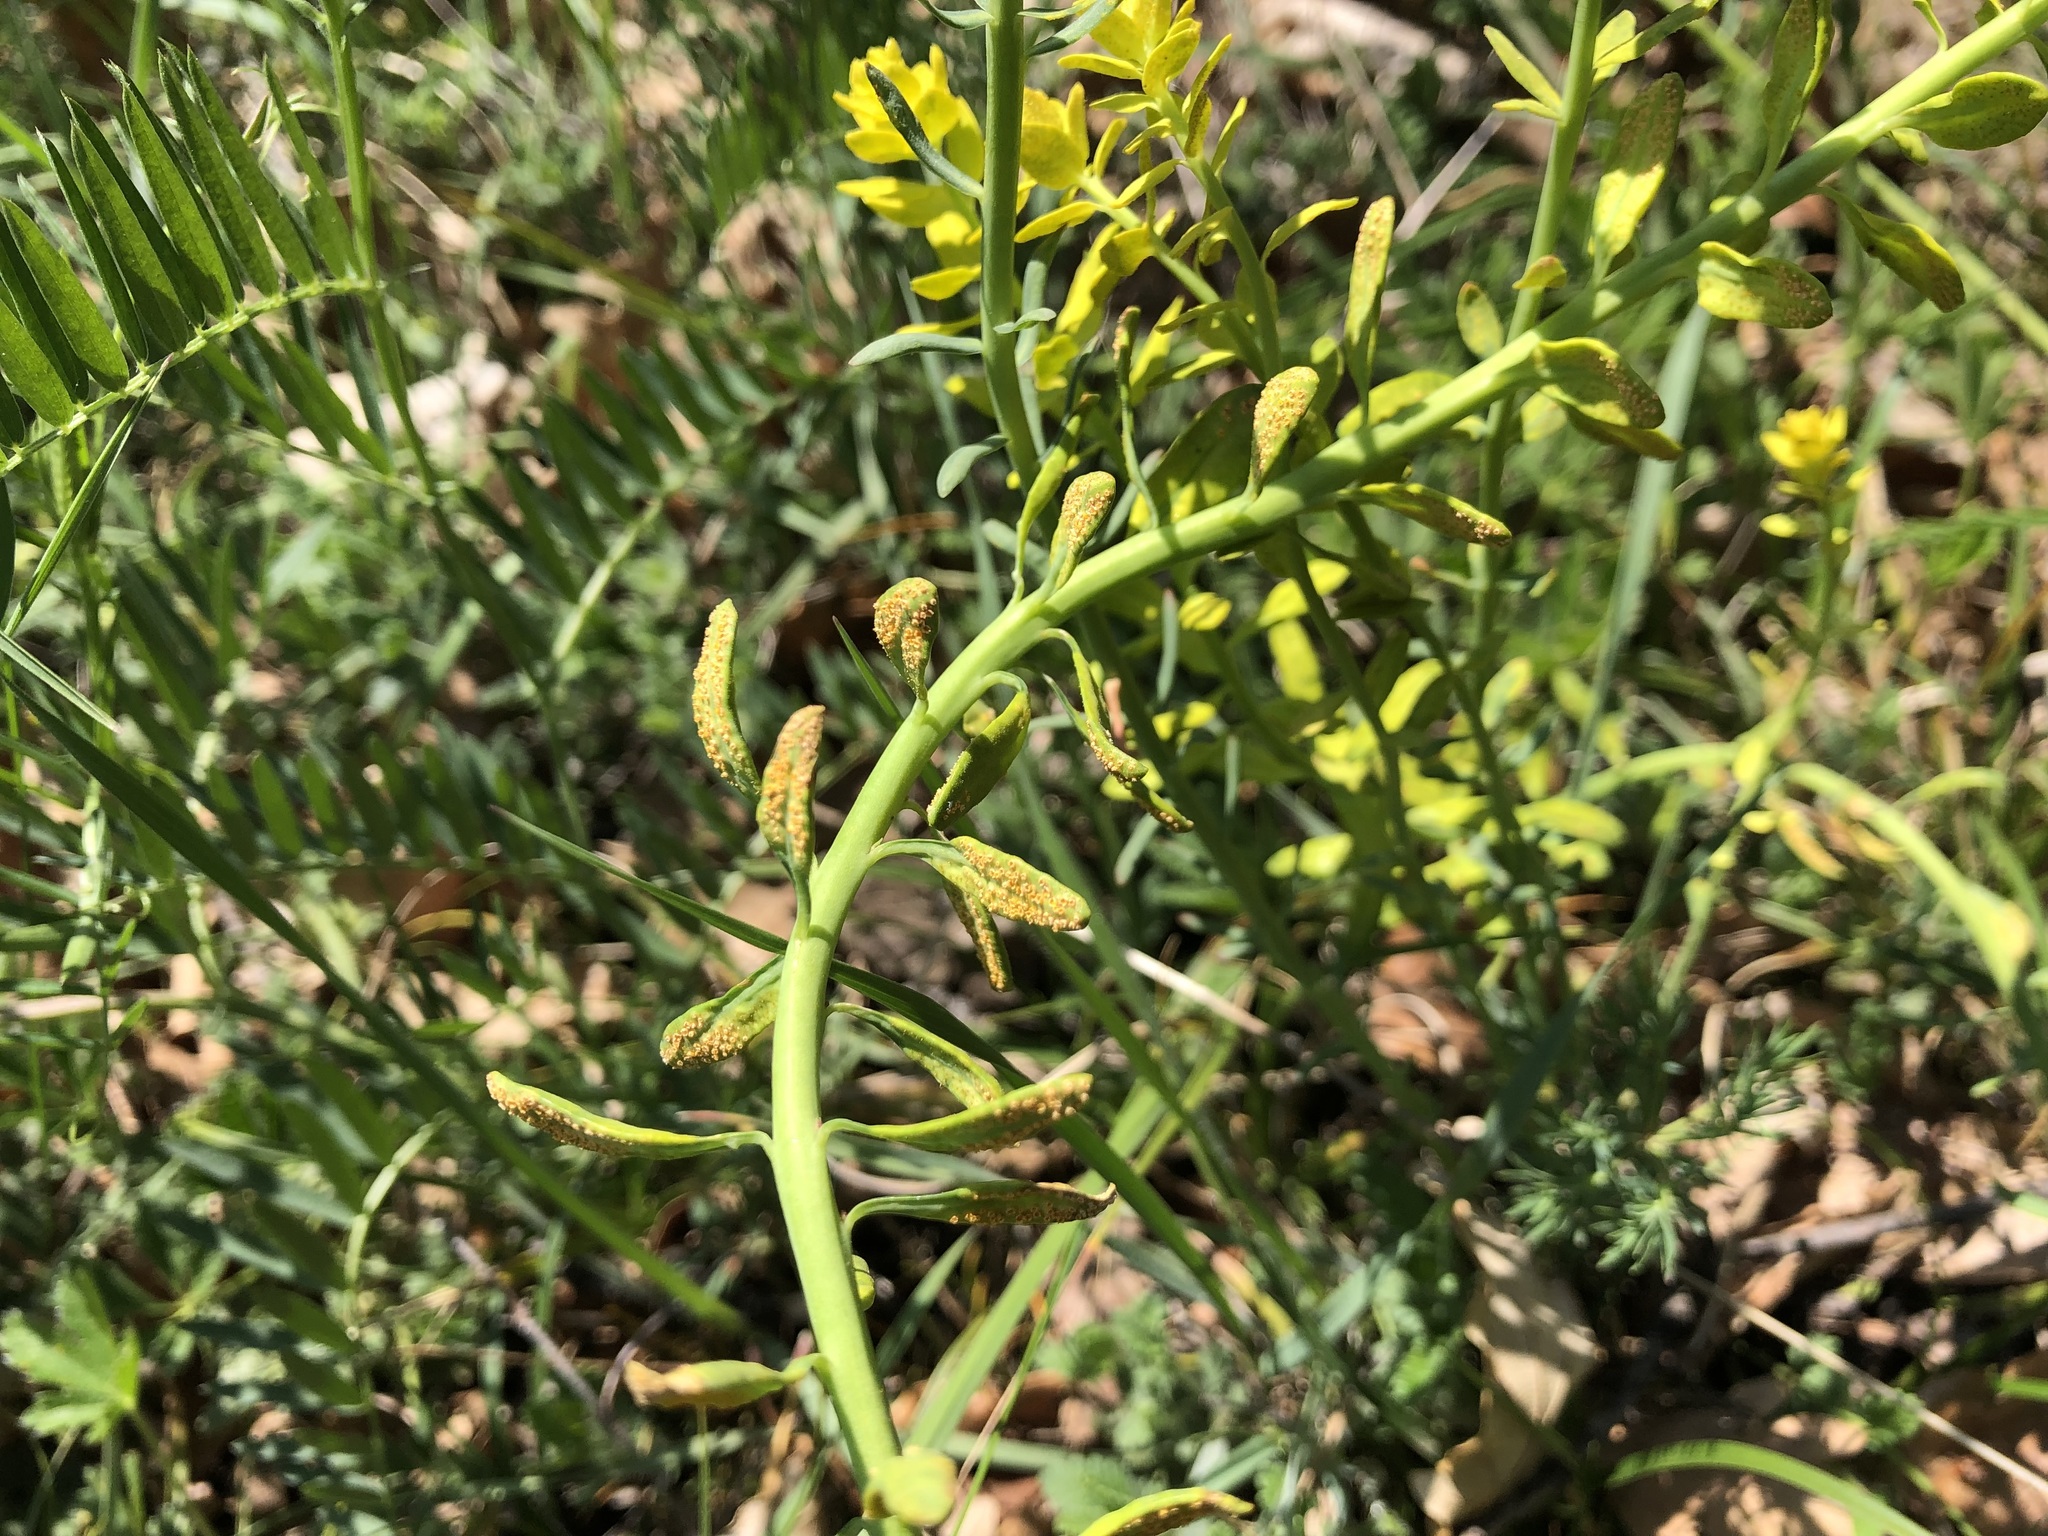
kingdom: Fungi
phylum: Basidiomycota
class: Pucciniomycetes
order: Pucciniales
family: Pucciniaceae
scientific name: Pucciniaceae
